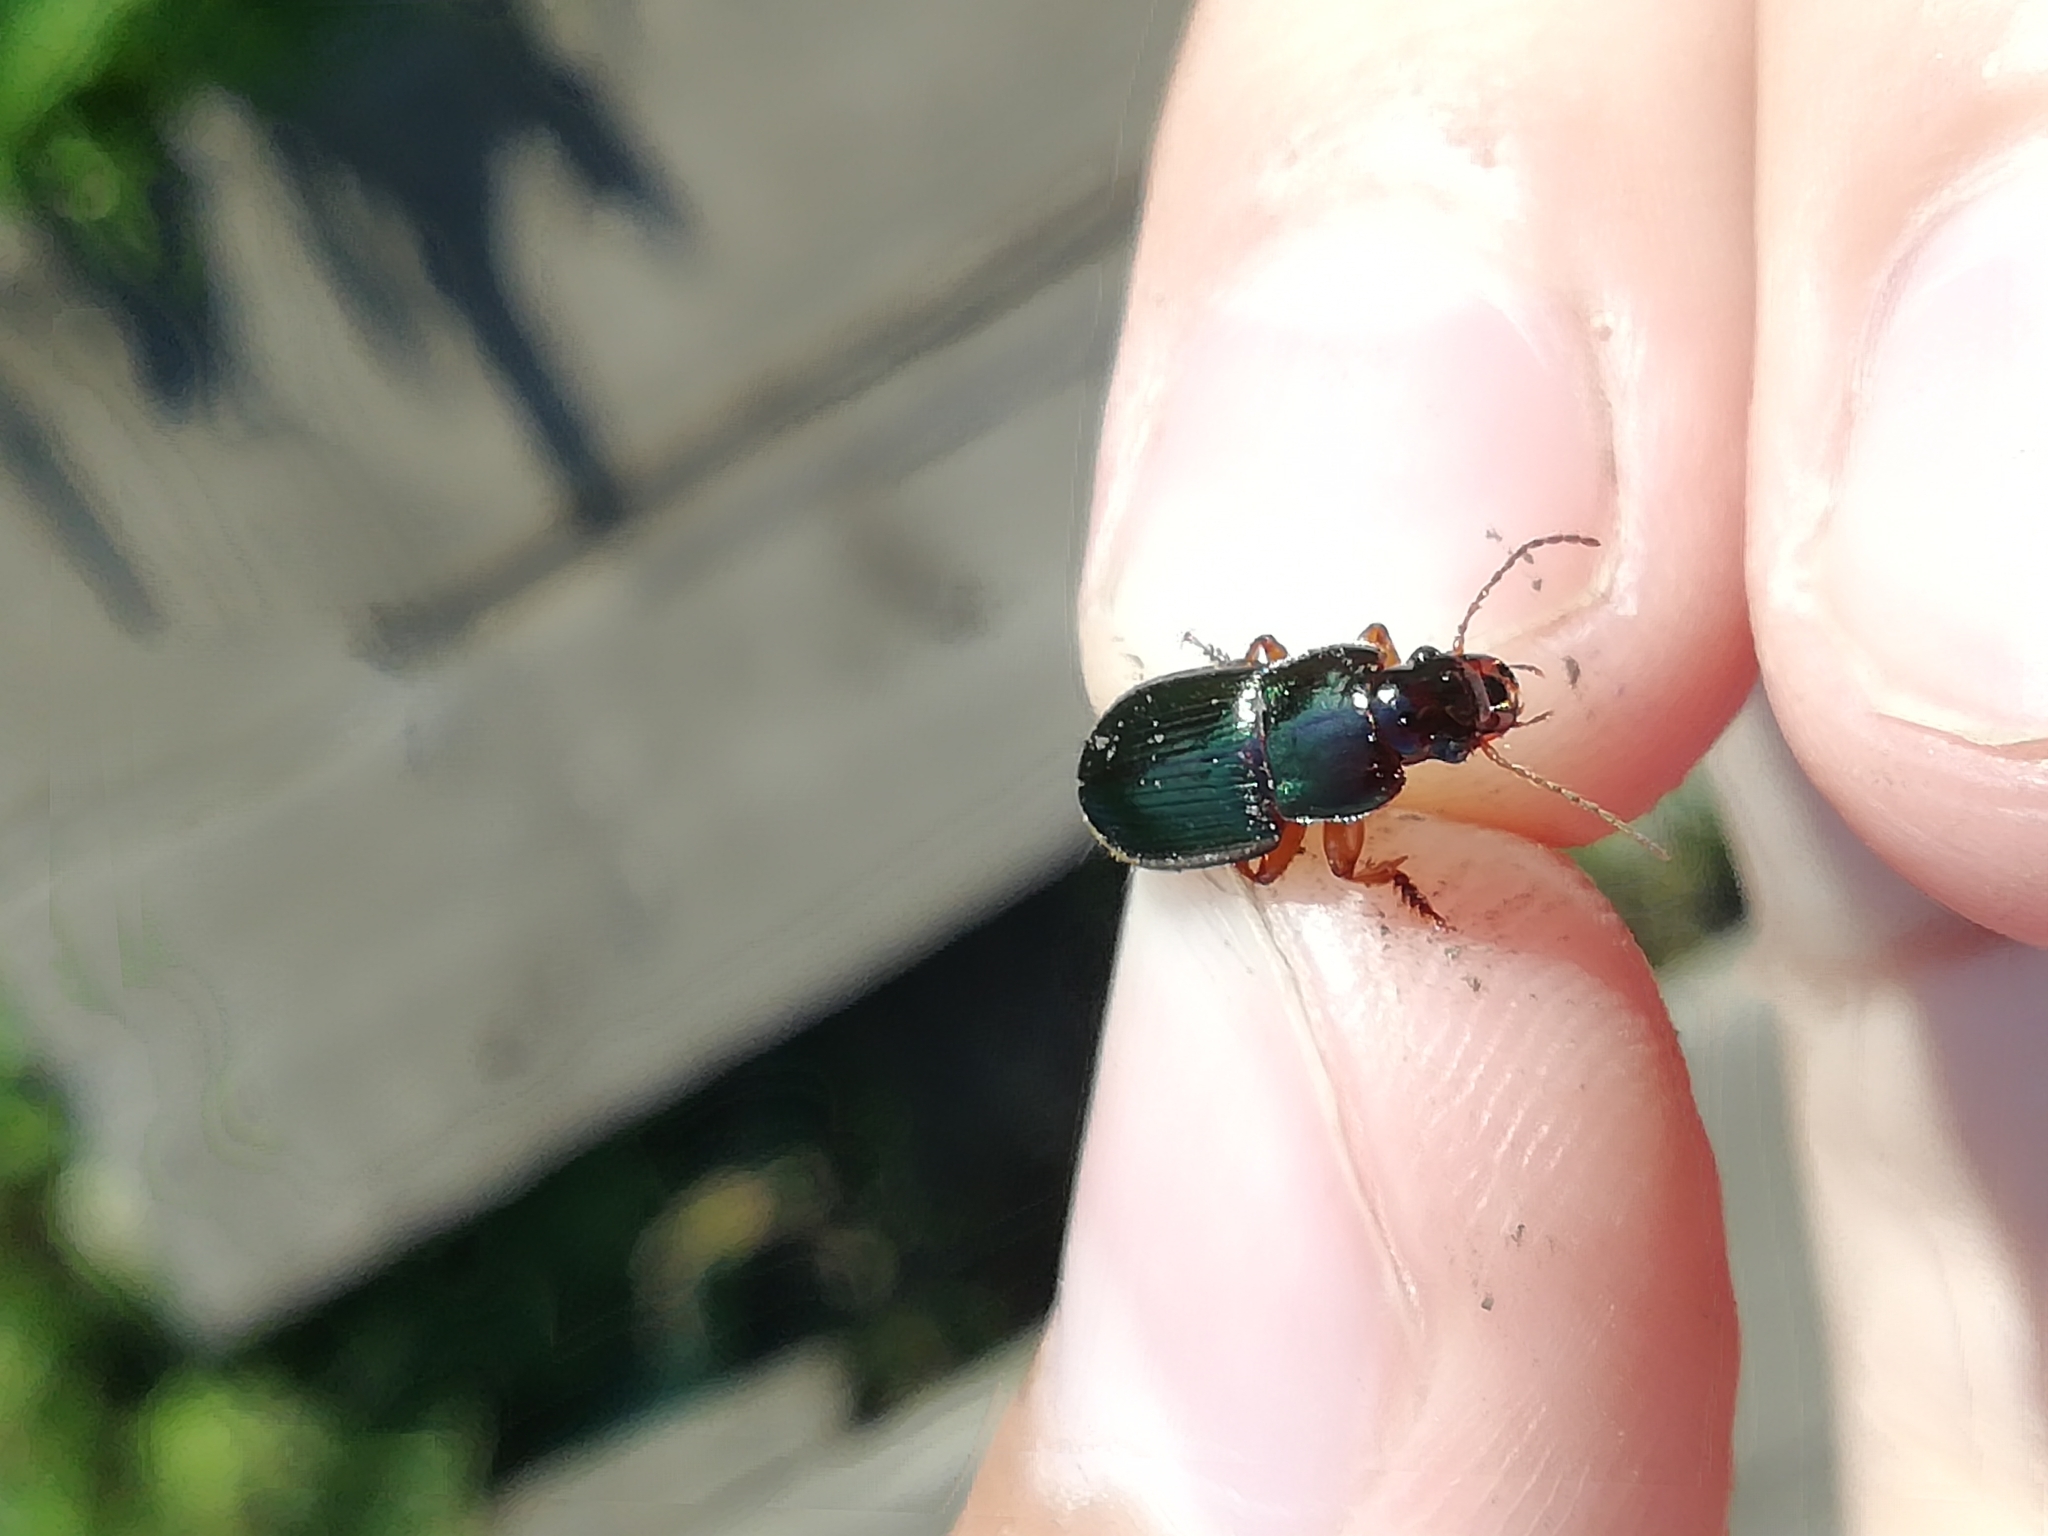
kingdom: Animalia
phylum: Arthropoda
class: Insecta
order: Coleoptera
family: Carabidae
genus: Harpalus
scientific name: Harpalus affinis
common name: Polychrome harp ground beetle
